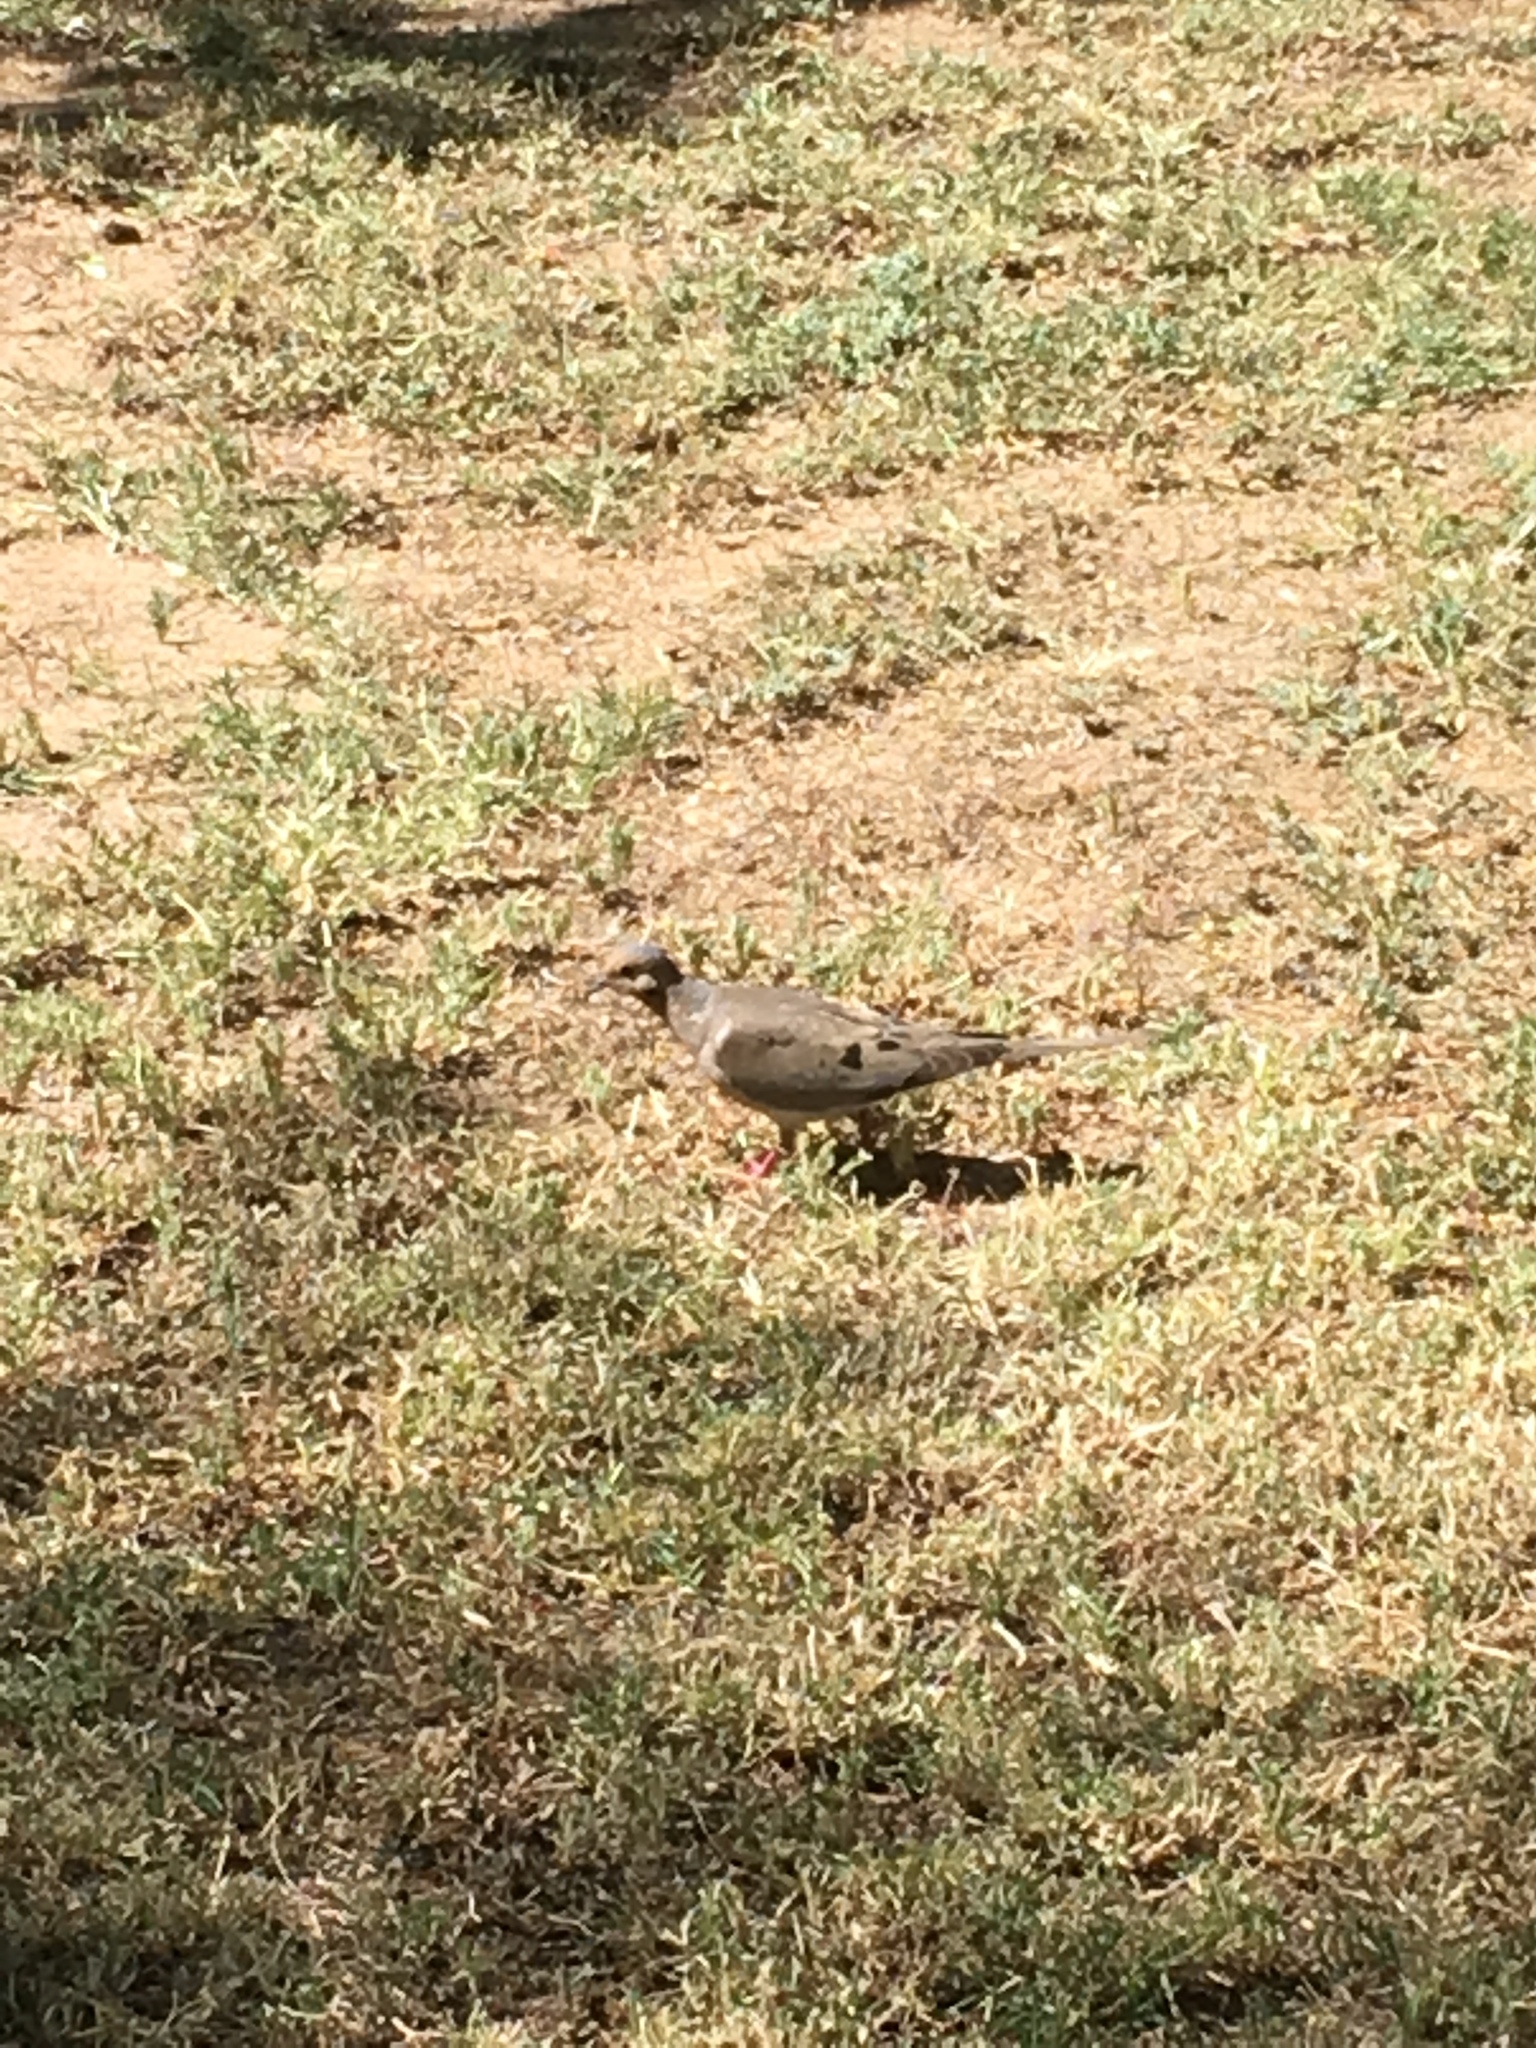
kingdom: Animalia
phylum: Chordata
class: Aves
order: Columbiformes
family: Columbidae
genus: Zenaida
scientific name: Zenaida macroura
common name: Mourning dove
